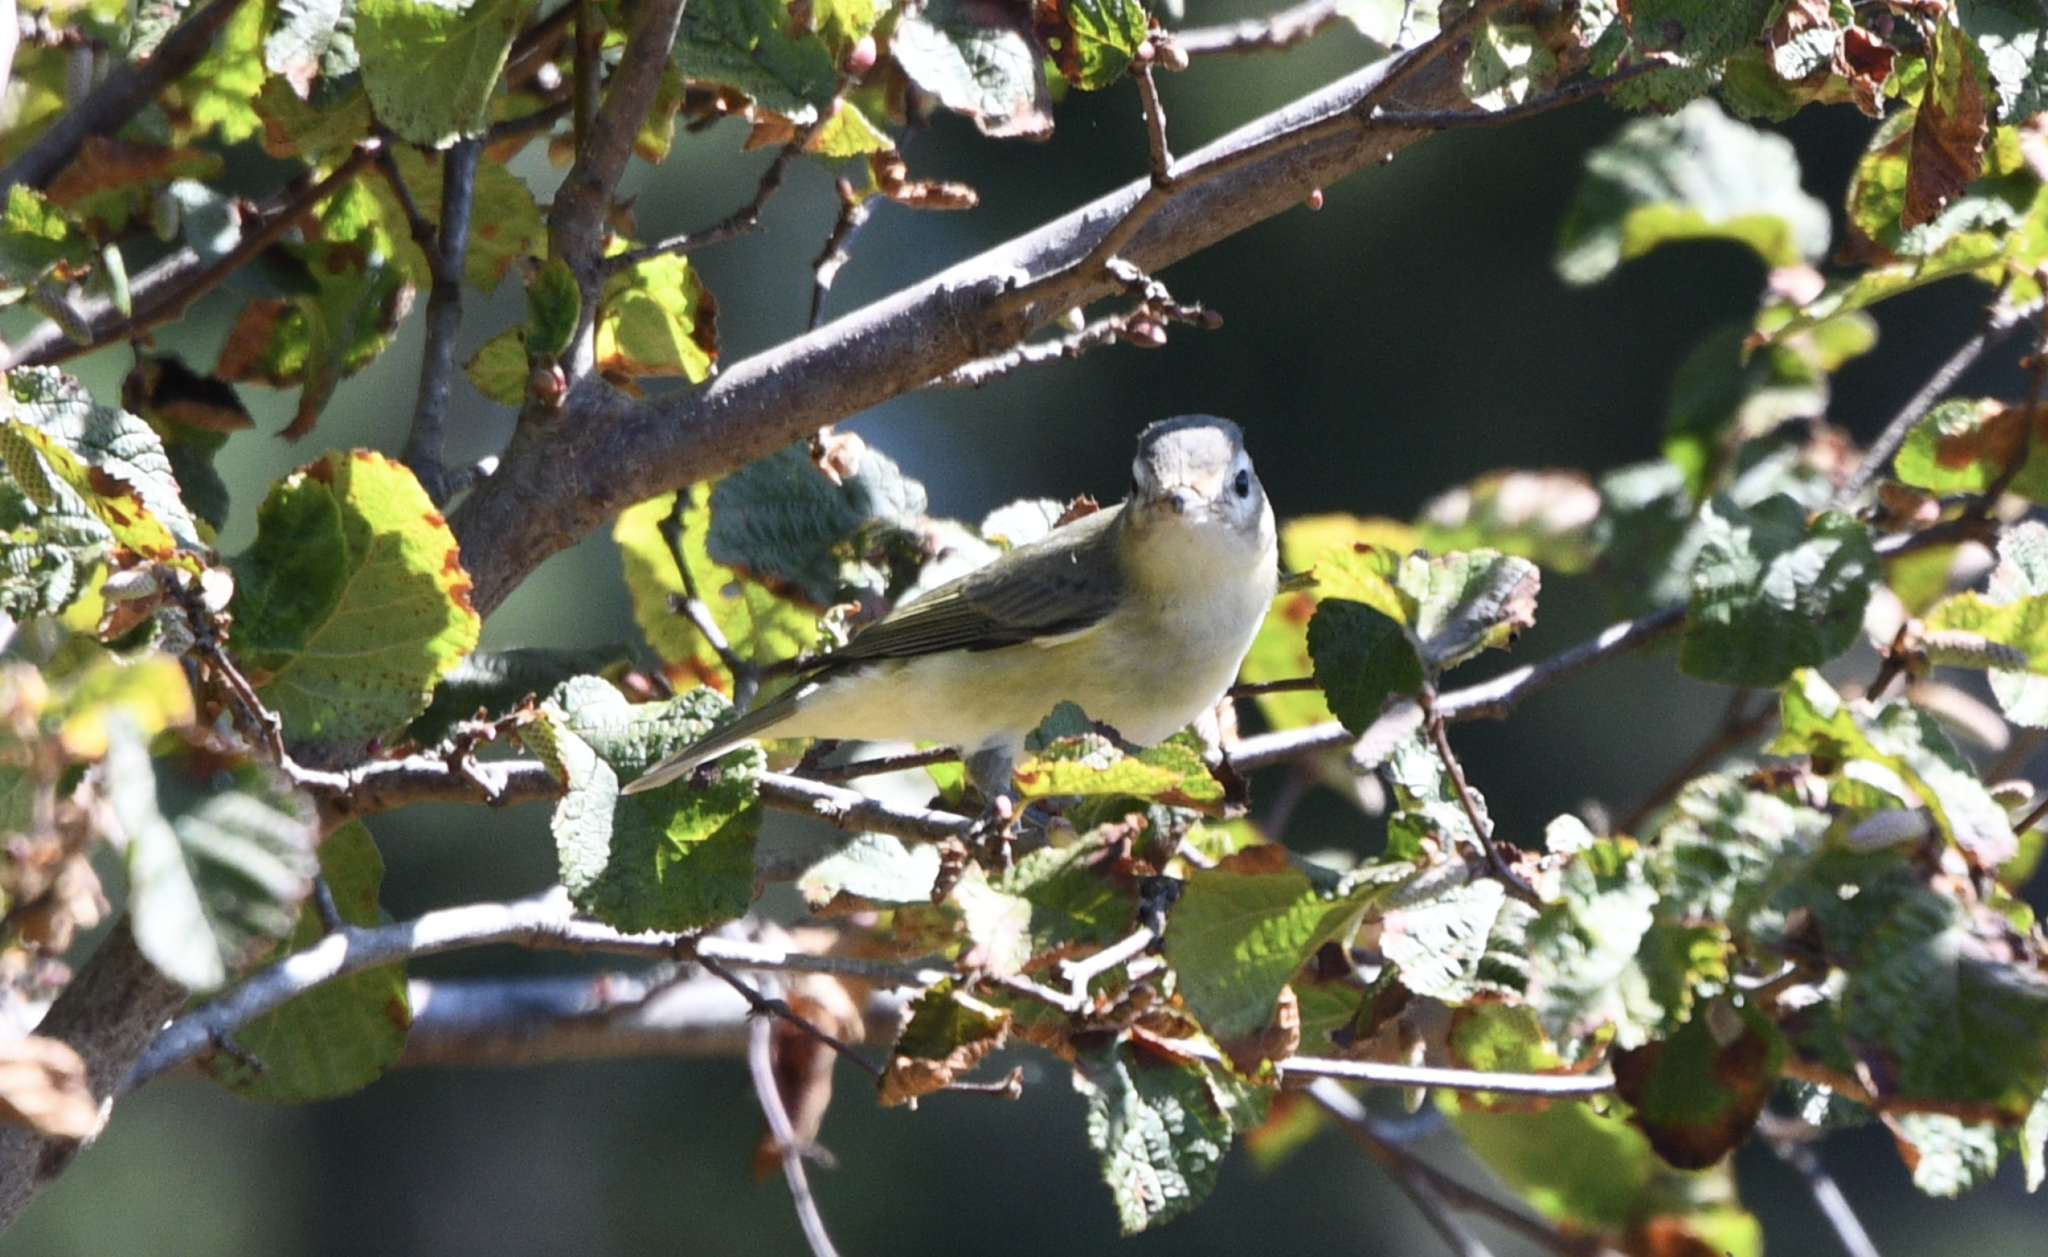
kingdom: Animalia
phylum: Chordata
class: Aves
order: Passeriformes
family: Vireonidae
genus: Vireo
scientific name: Vireo gilvus
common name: Warbling vireo
